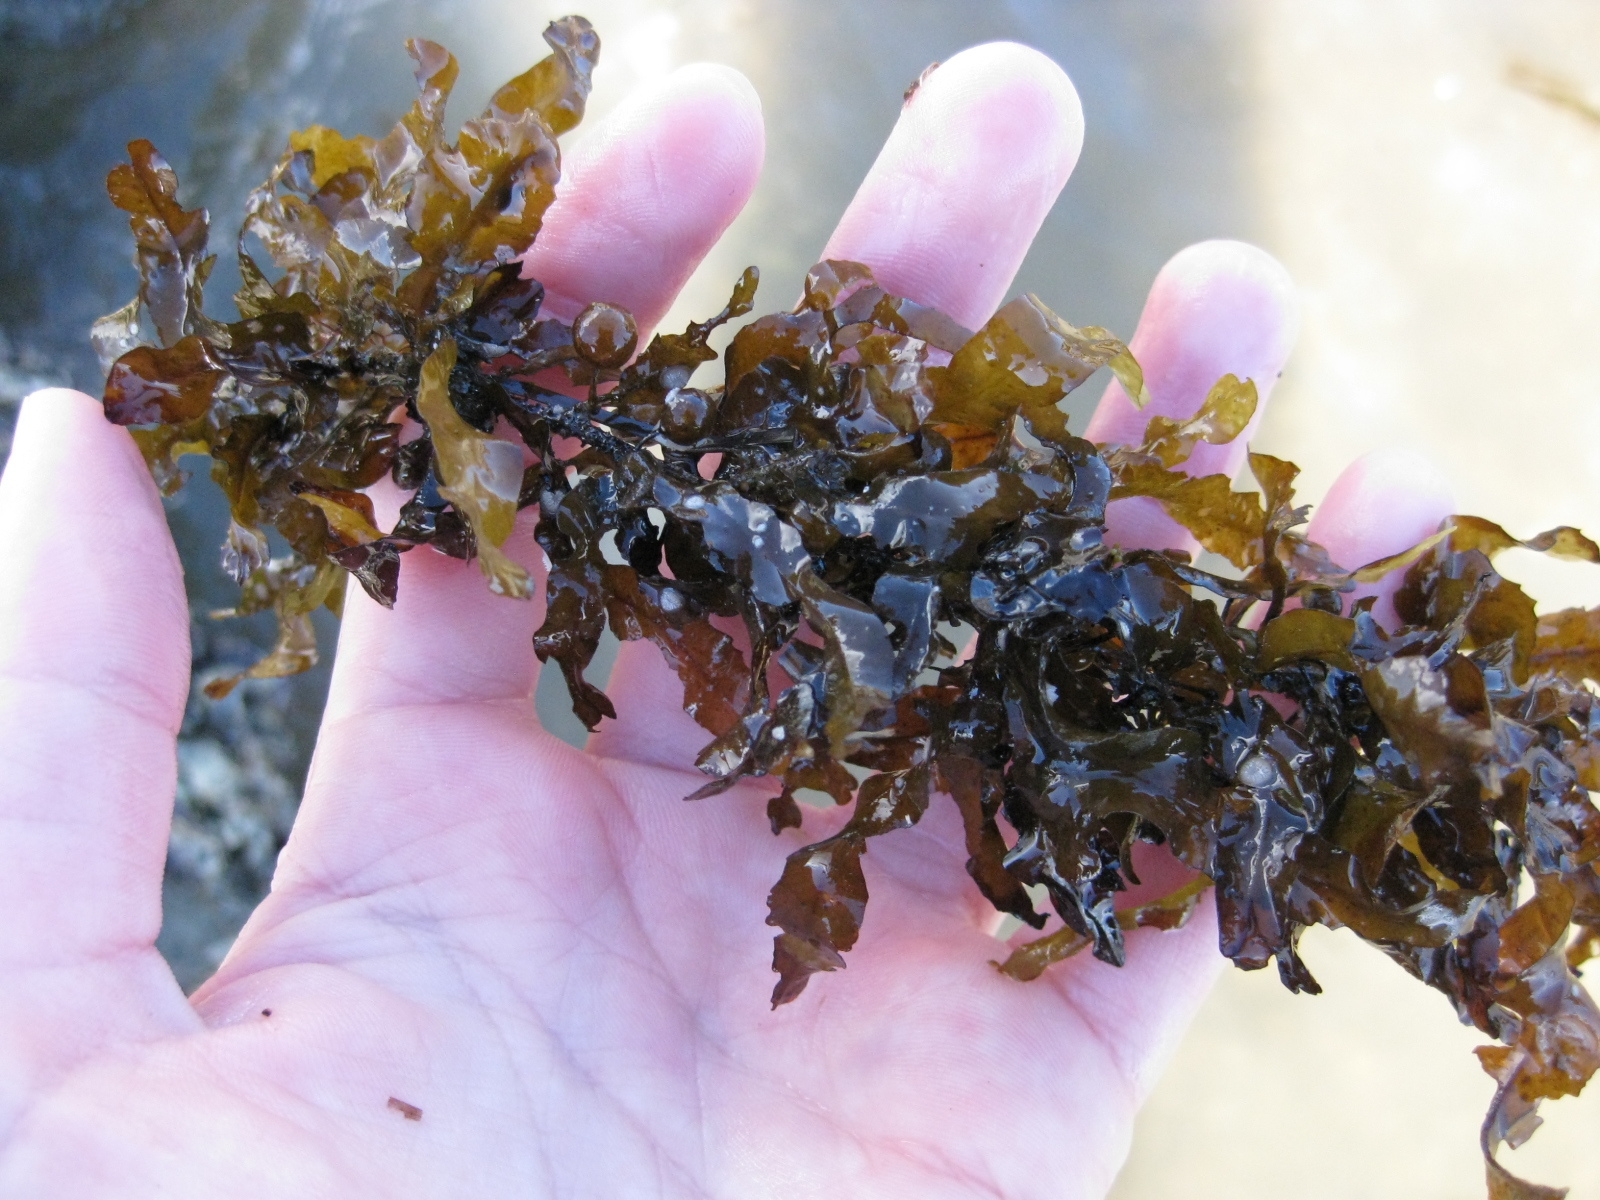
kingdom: Chromista
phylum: Ochrophyta
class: Phaeophyceae
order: Fucales
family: Sargassaceae
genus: Sargassum
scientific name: Sargassum scabridum
